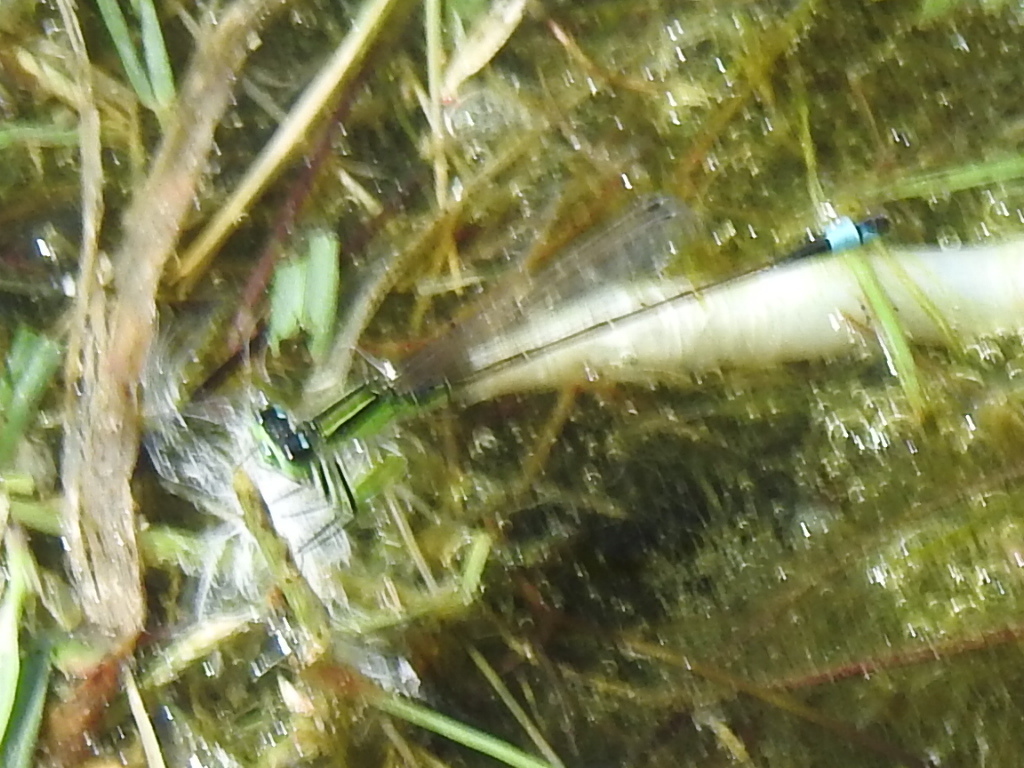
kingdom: Animalia
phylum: Arthropoda
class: Insecta
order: Odonata
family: Coenagrionidae
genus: Ischnura
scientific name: Ischnura ramburii
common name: Rambur's forktail
